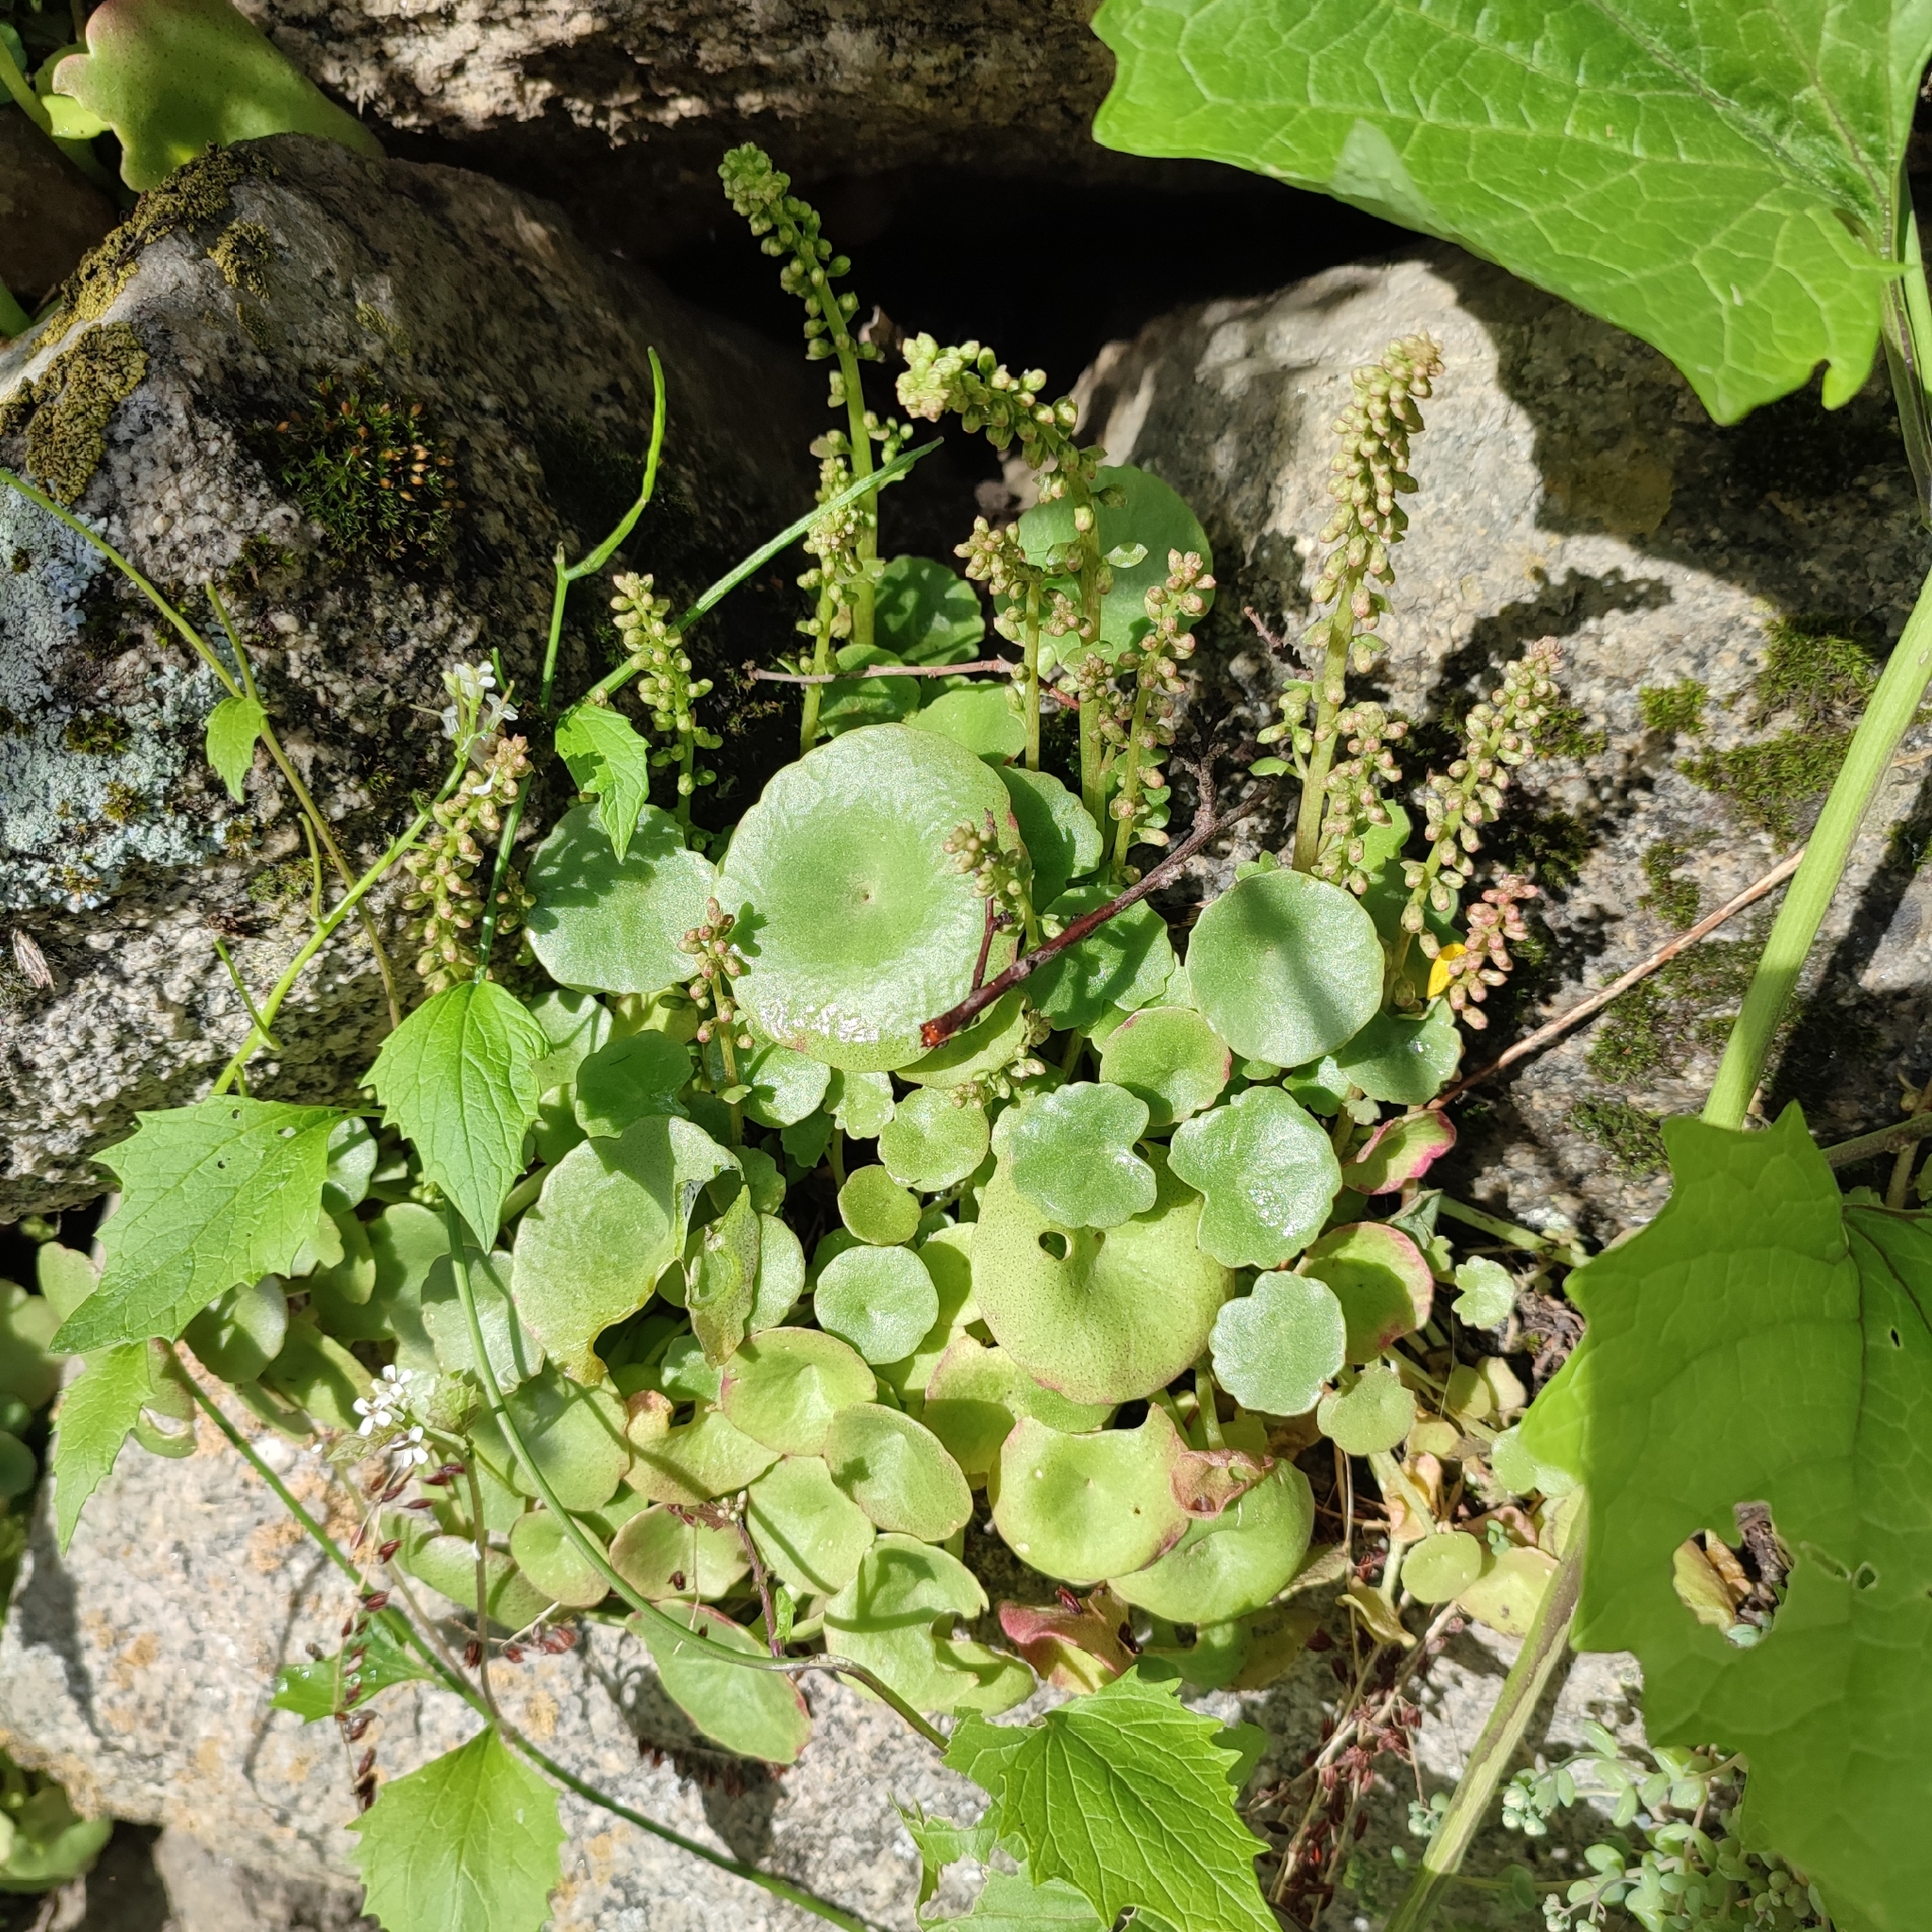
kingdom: Plantae
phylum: Tracheophyta
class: Magnoliopsida
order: Saxifragales
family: Crassulaceae
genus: Umbilicus
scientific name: Umbilicus rupestris
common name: Navelwort
